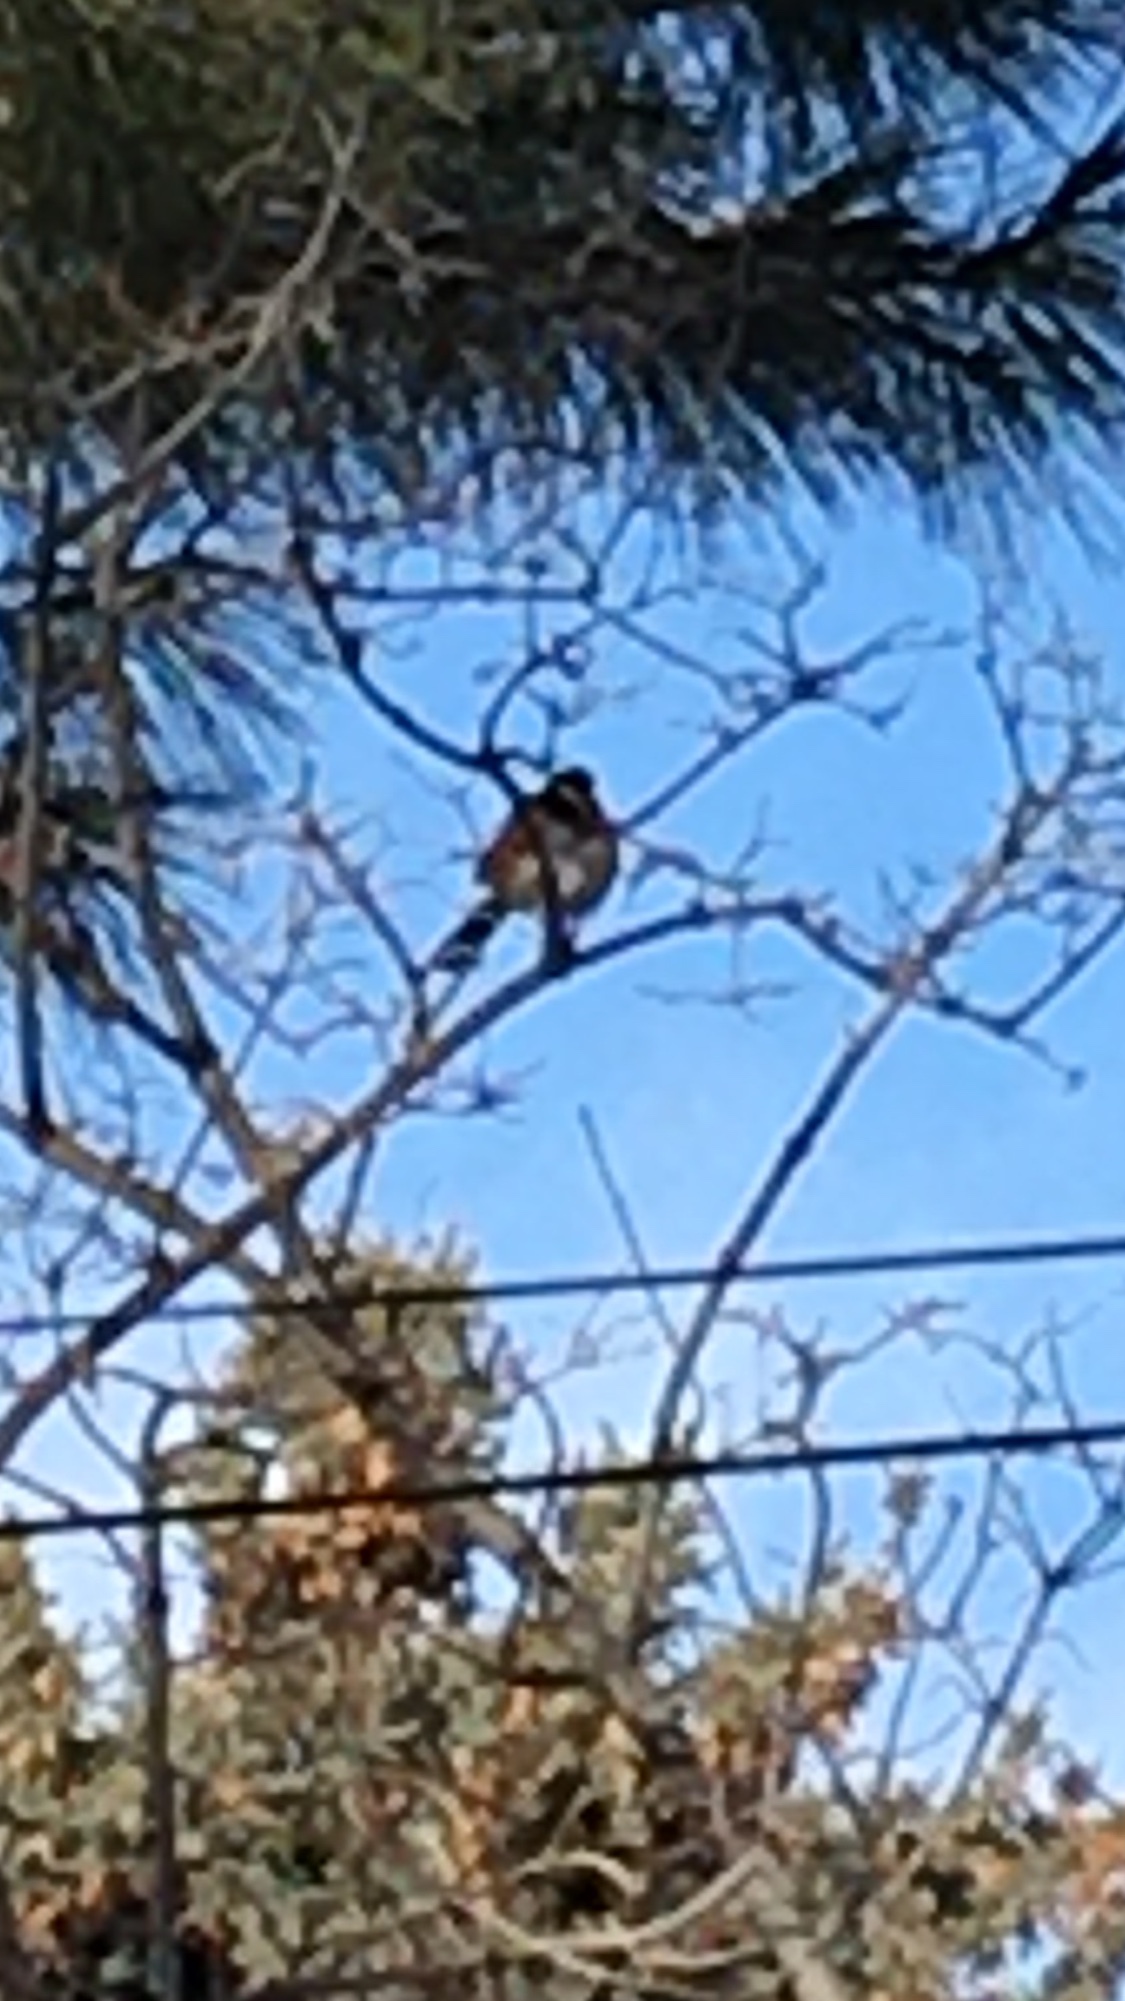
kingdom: Animalia
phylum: Chordata
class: Aves
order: Passeriformes
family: Passerellidae
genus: Pipilo
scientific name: Pipilo maculatus
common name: Spotted towhee
